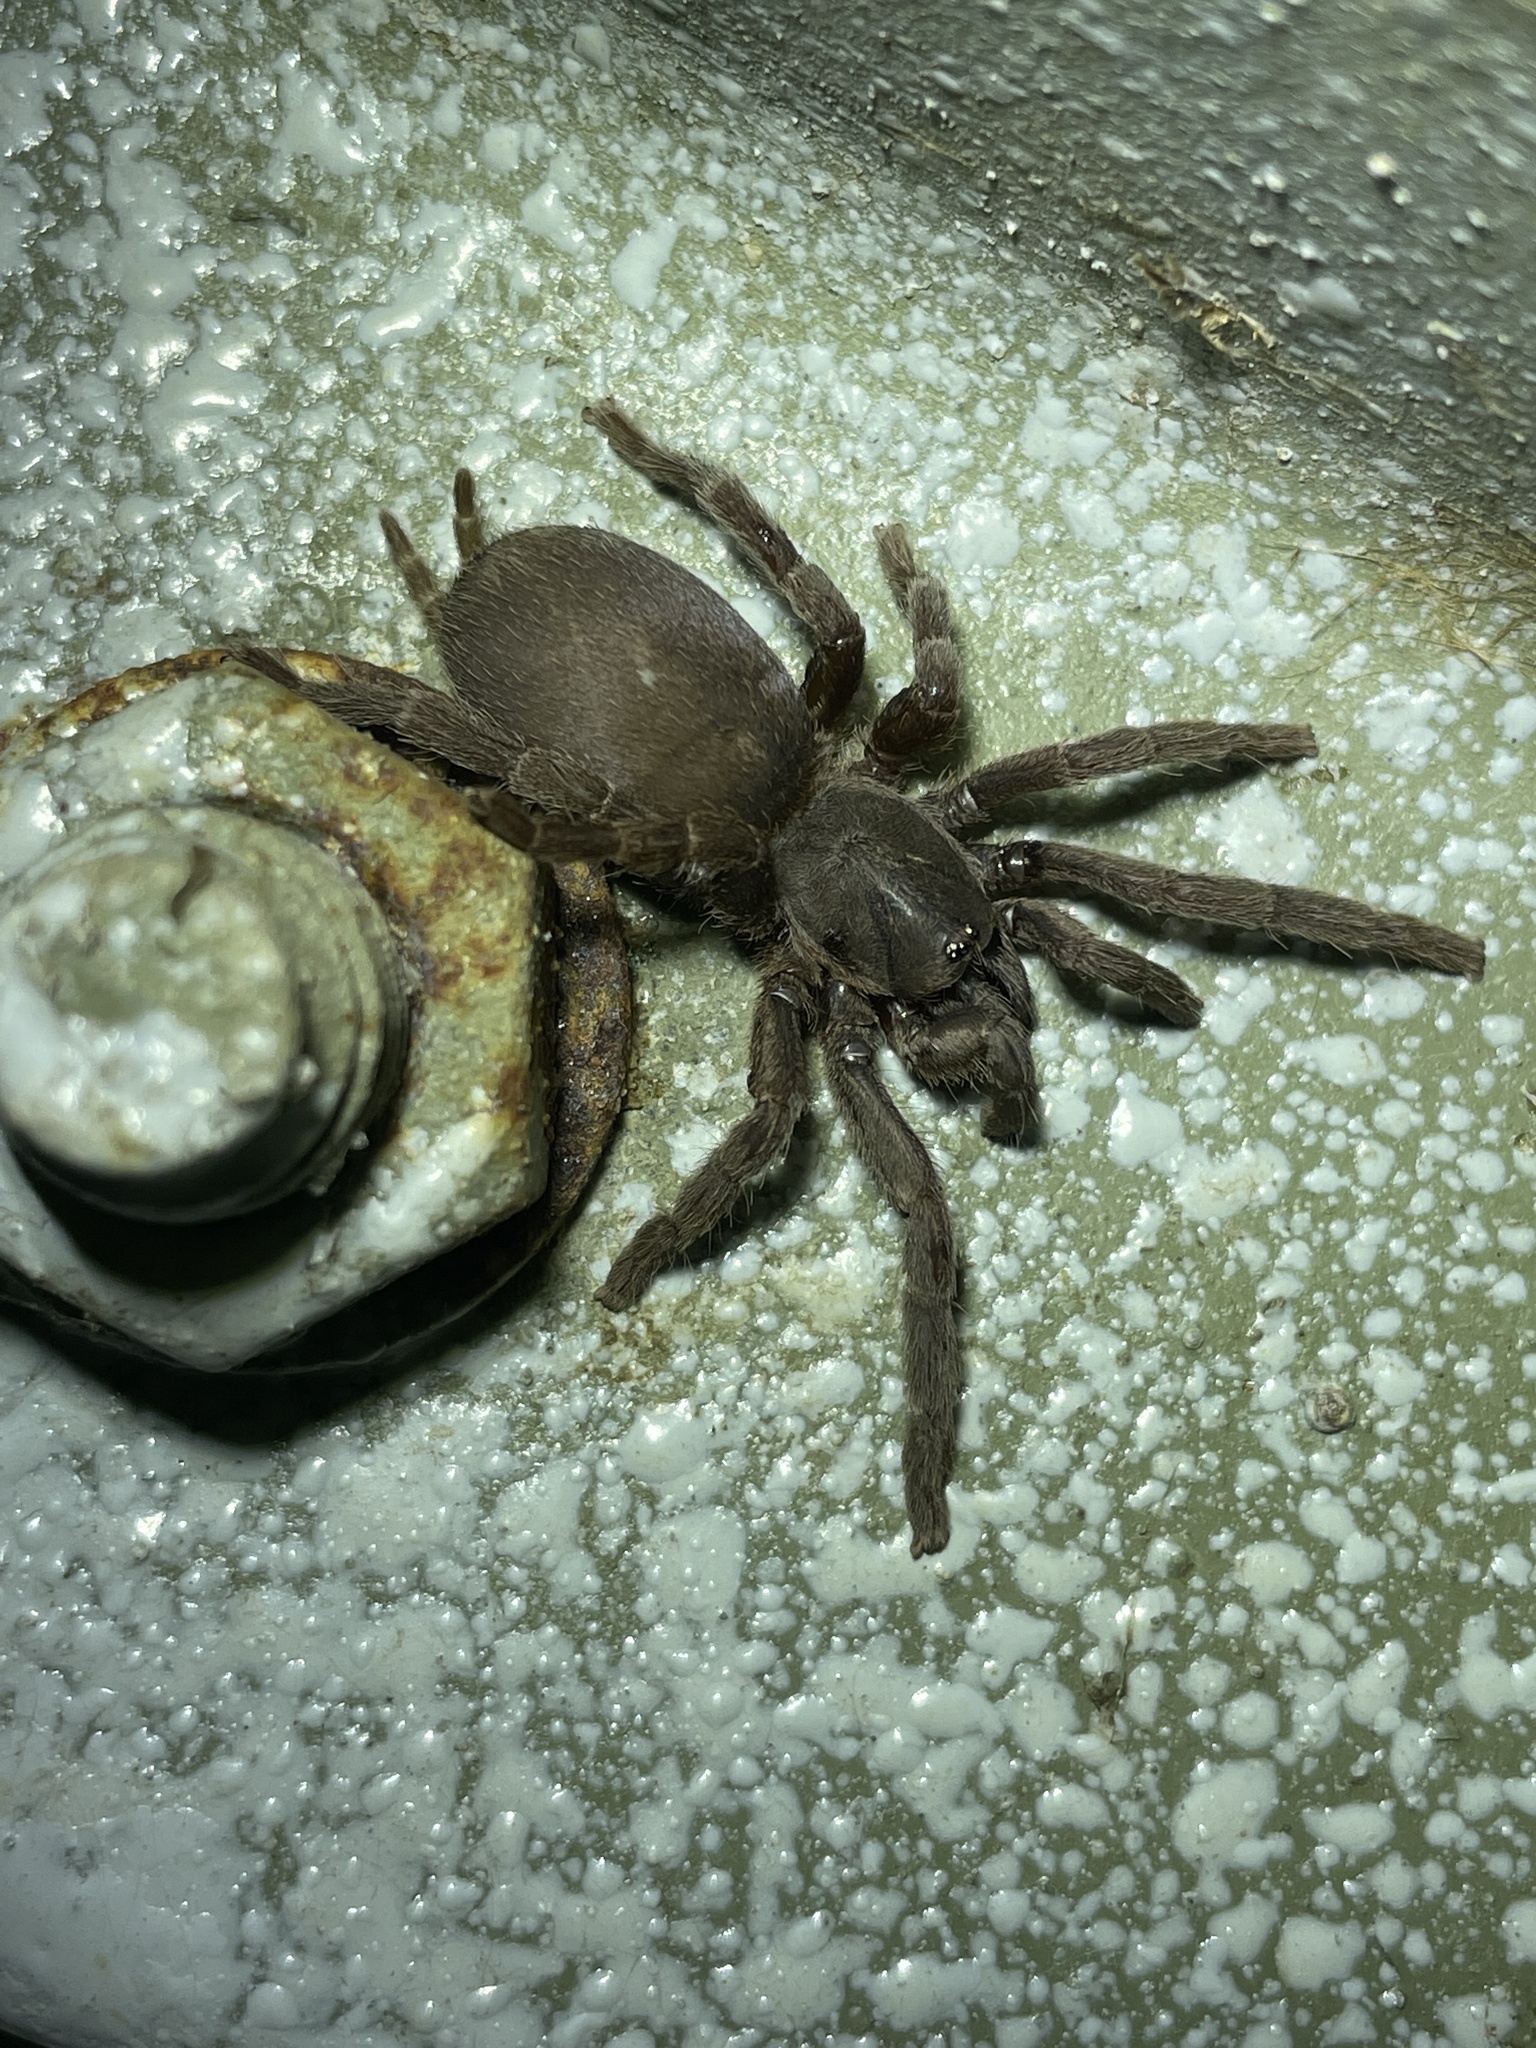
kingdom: Animalia
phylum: Arthropoda
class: Arachnida
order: Araneae
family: Theraphosidae
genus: Phlogiellus
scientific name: Phlogiellus
